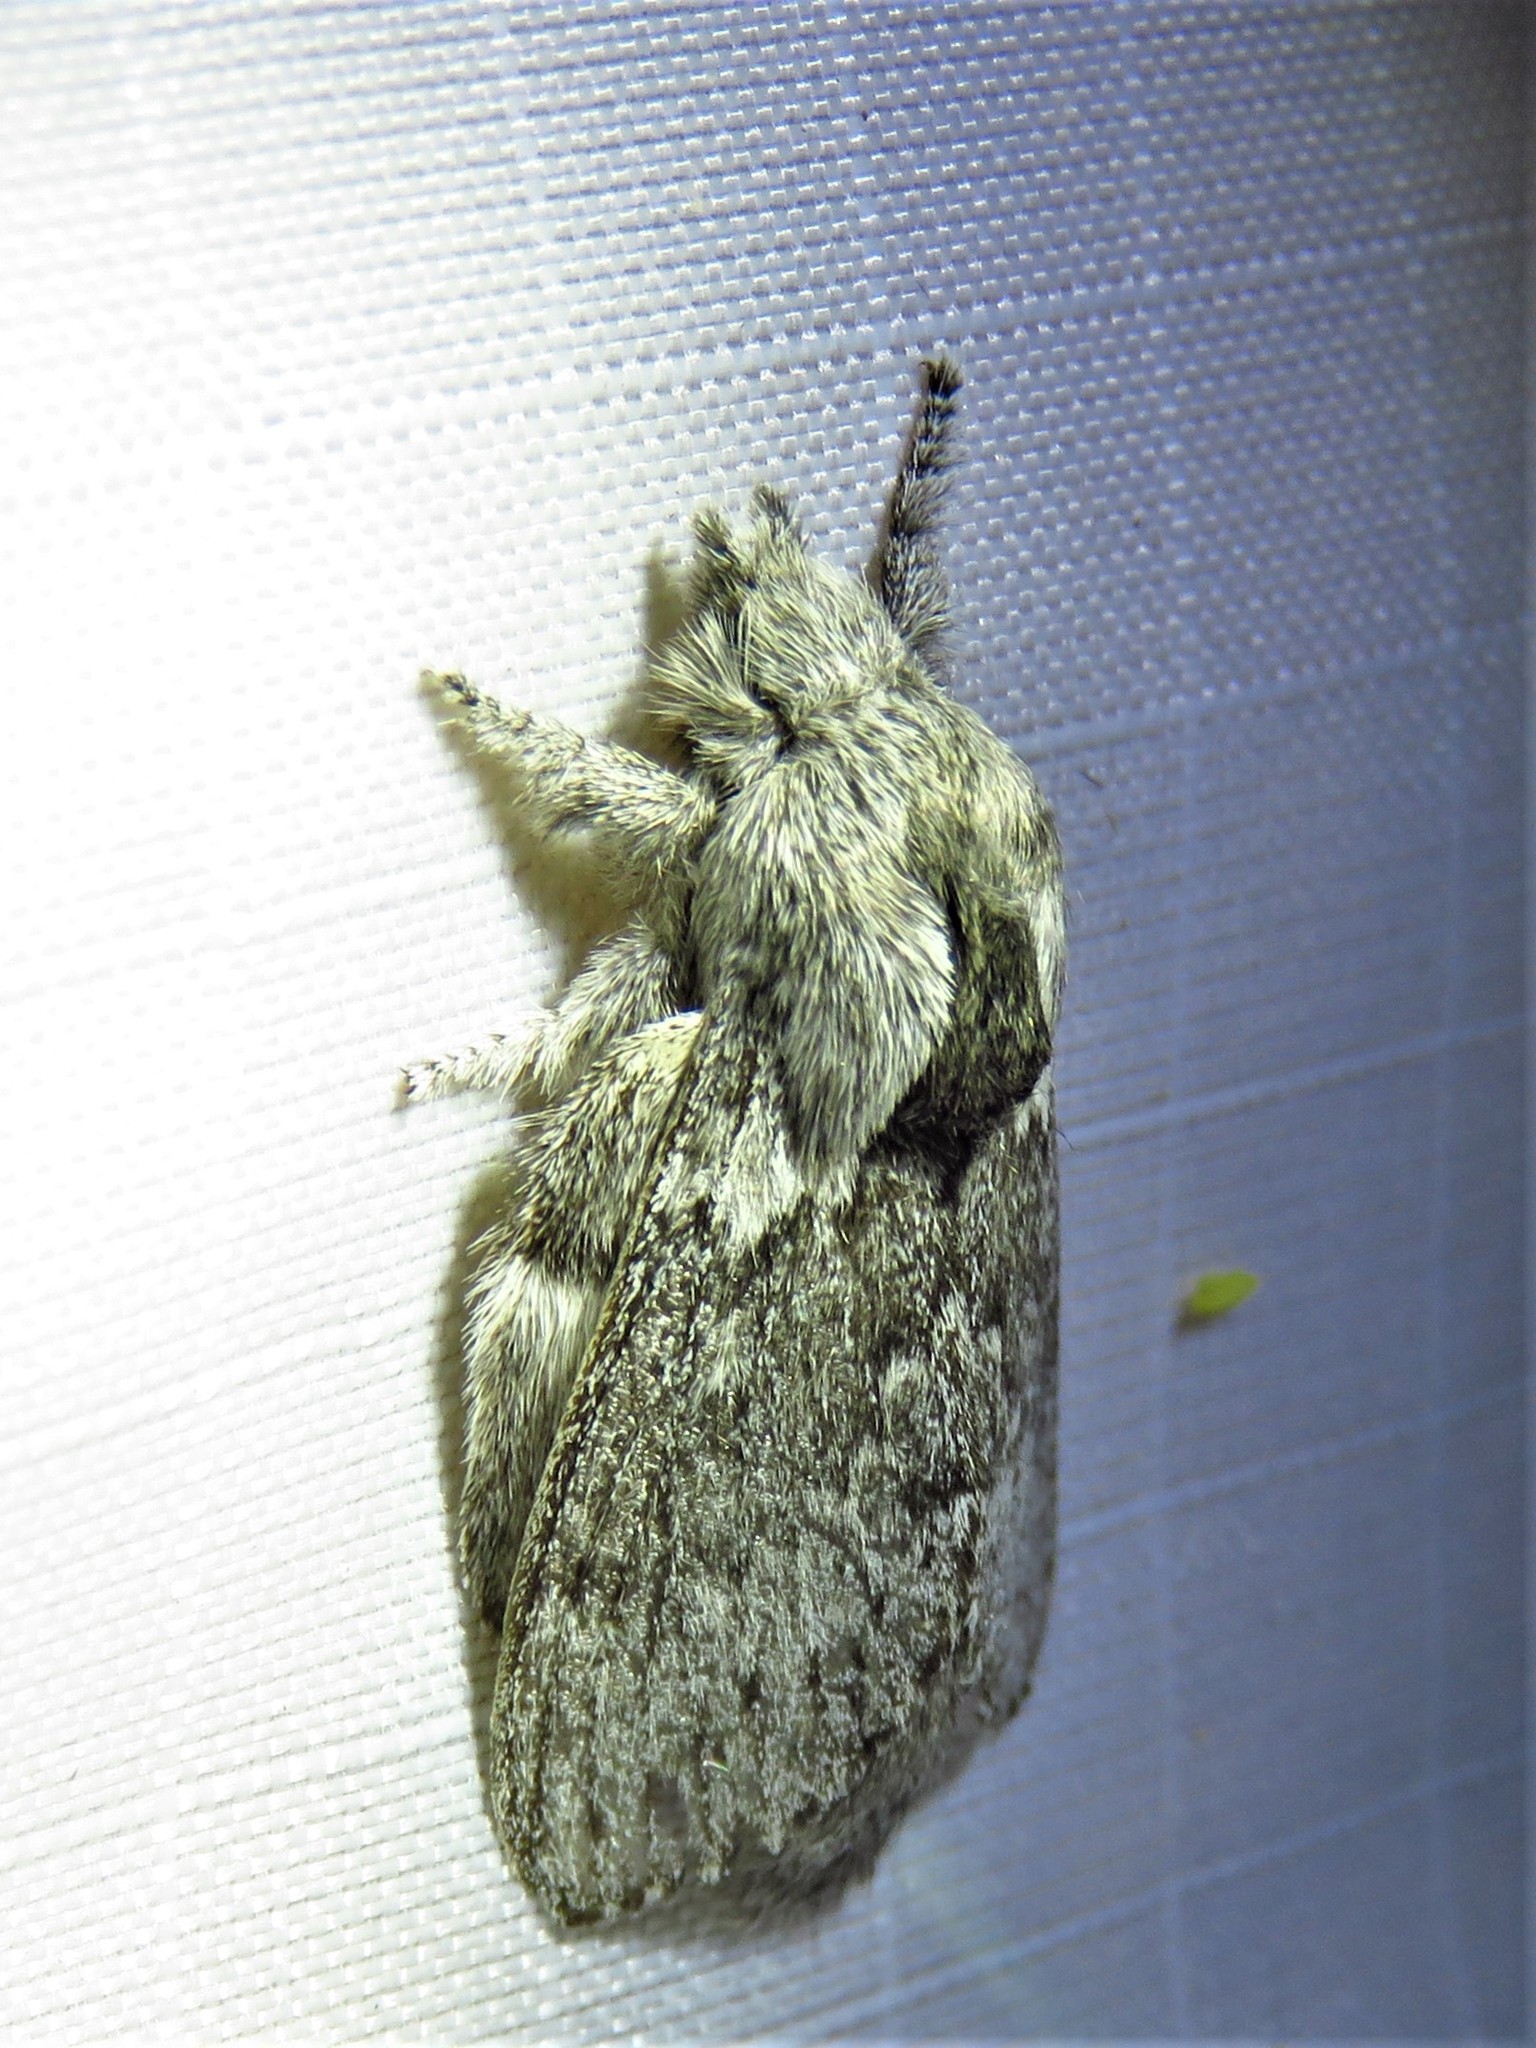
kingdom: Animalia
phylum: Arthropoda
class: Insecta
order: Lepidoptera
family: Lasiocampidae
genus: Heteropacha
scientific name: Heteropacha rileyana
